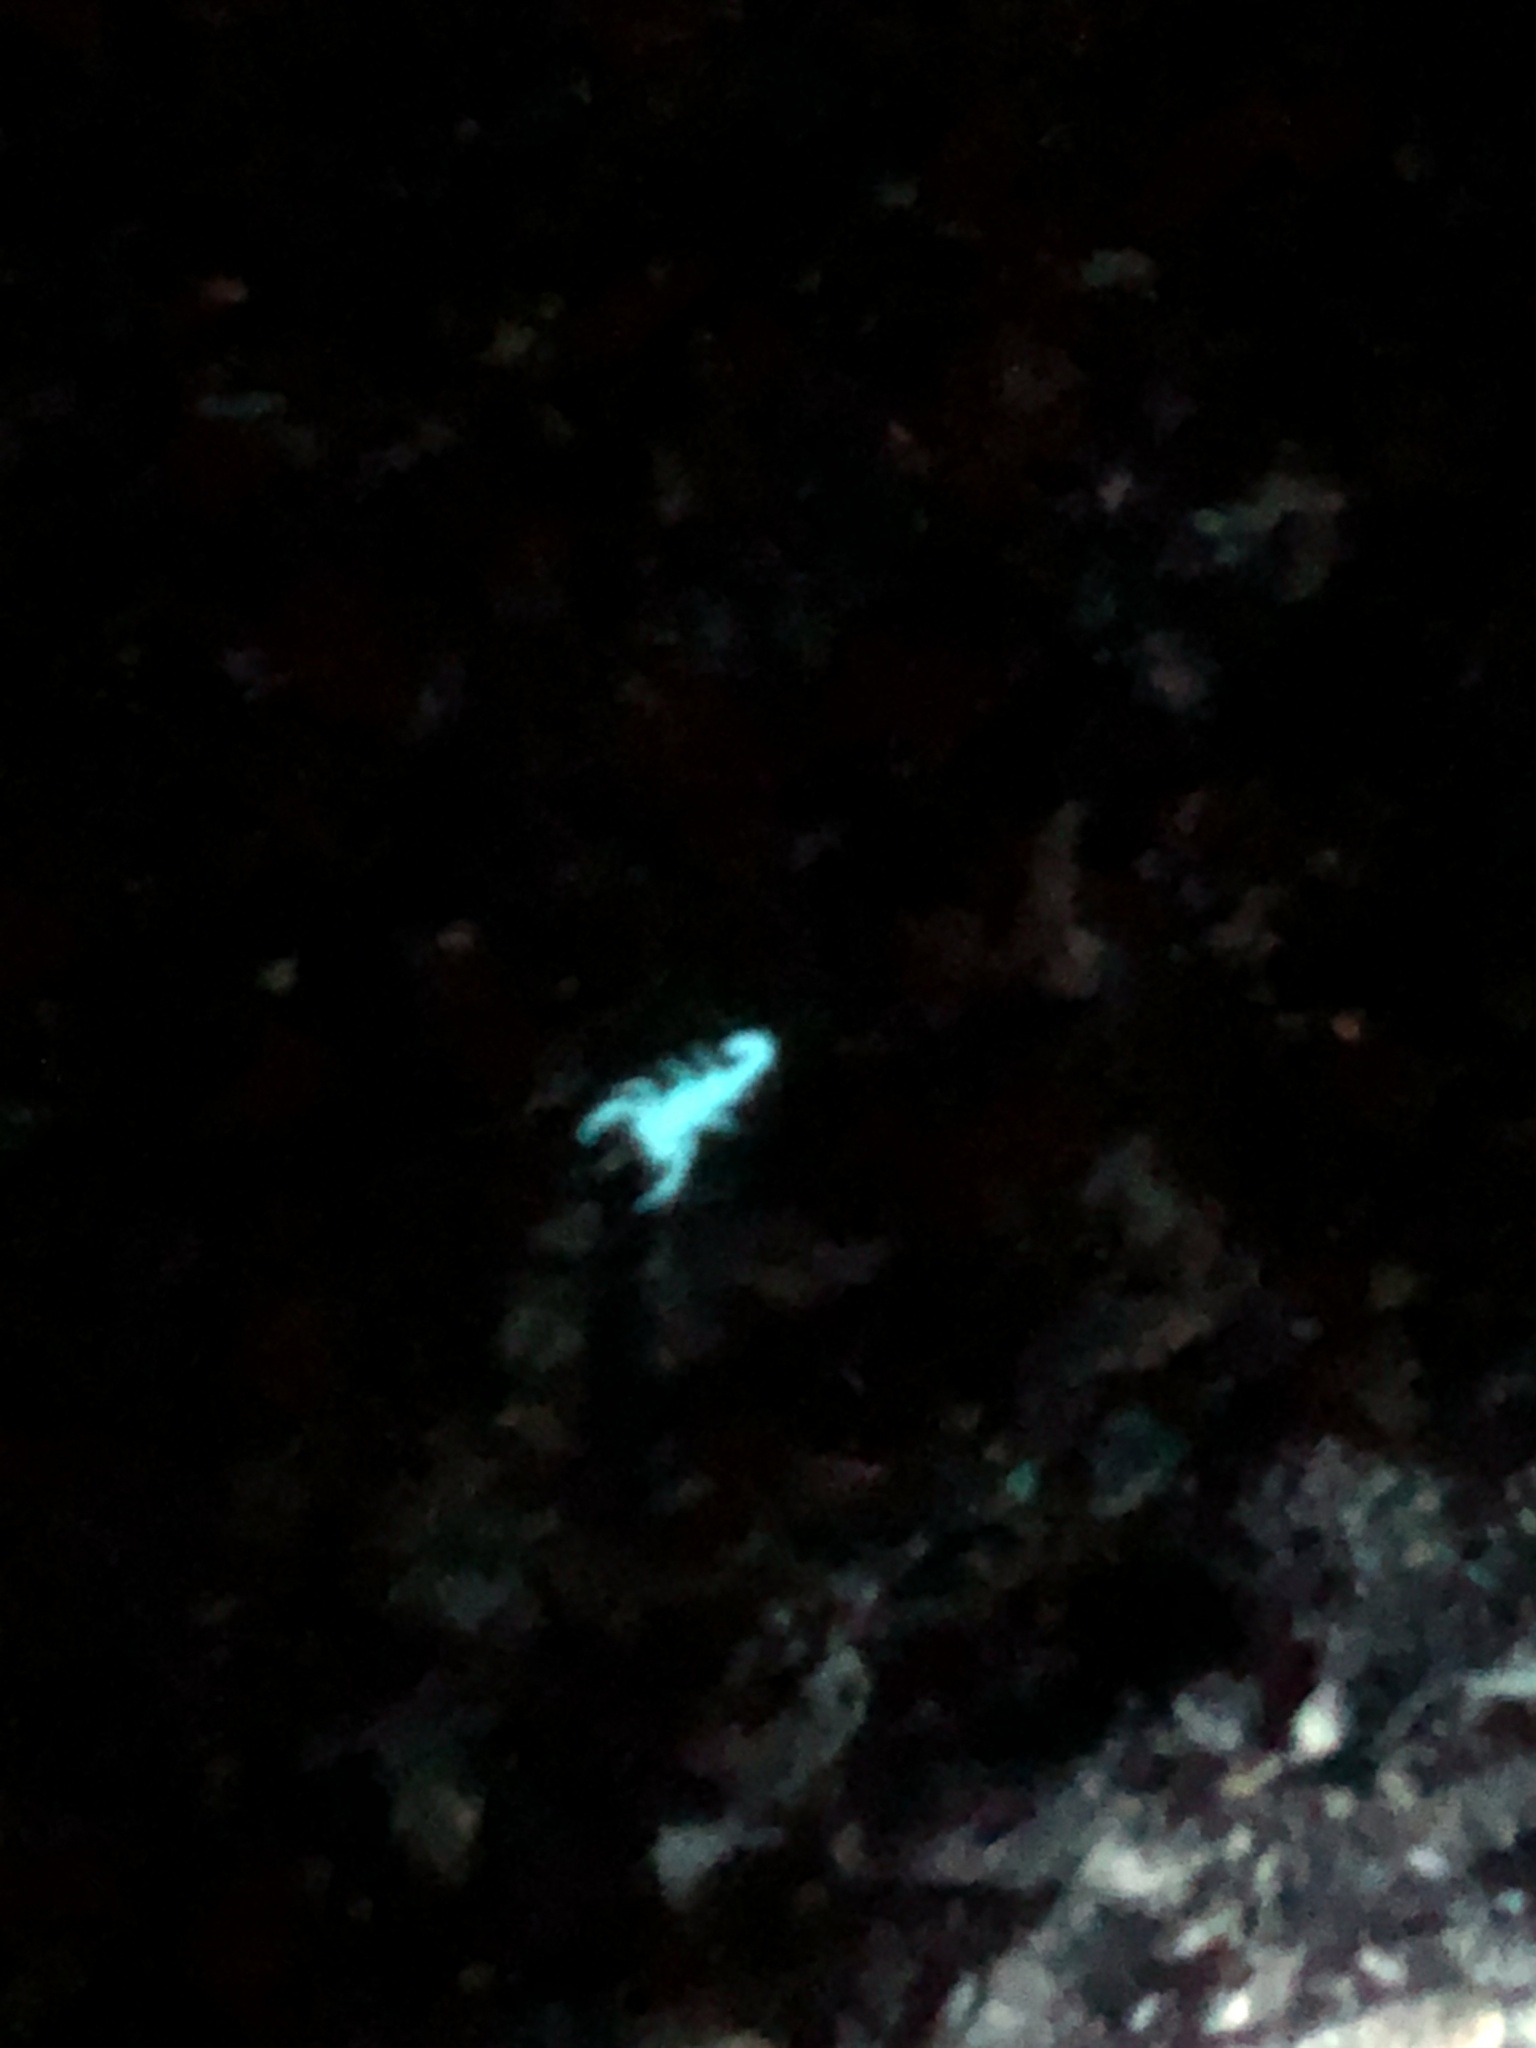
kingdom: Animalia
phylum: Arthropoda
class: Arachnida
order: Scorpiones
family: Vaejovidae
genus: Serradigitus
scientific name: Serradigitus gertschi
